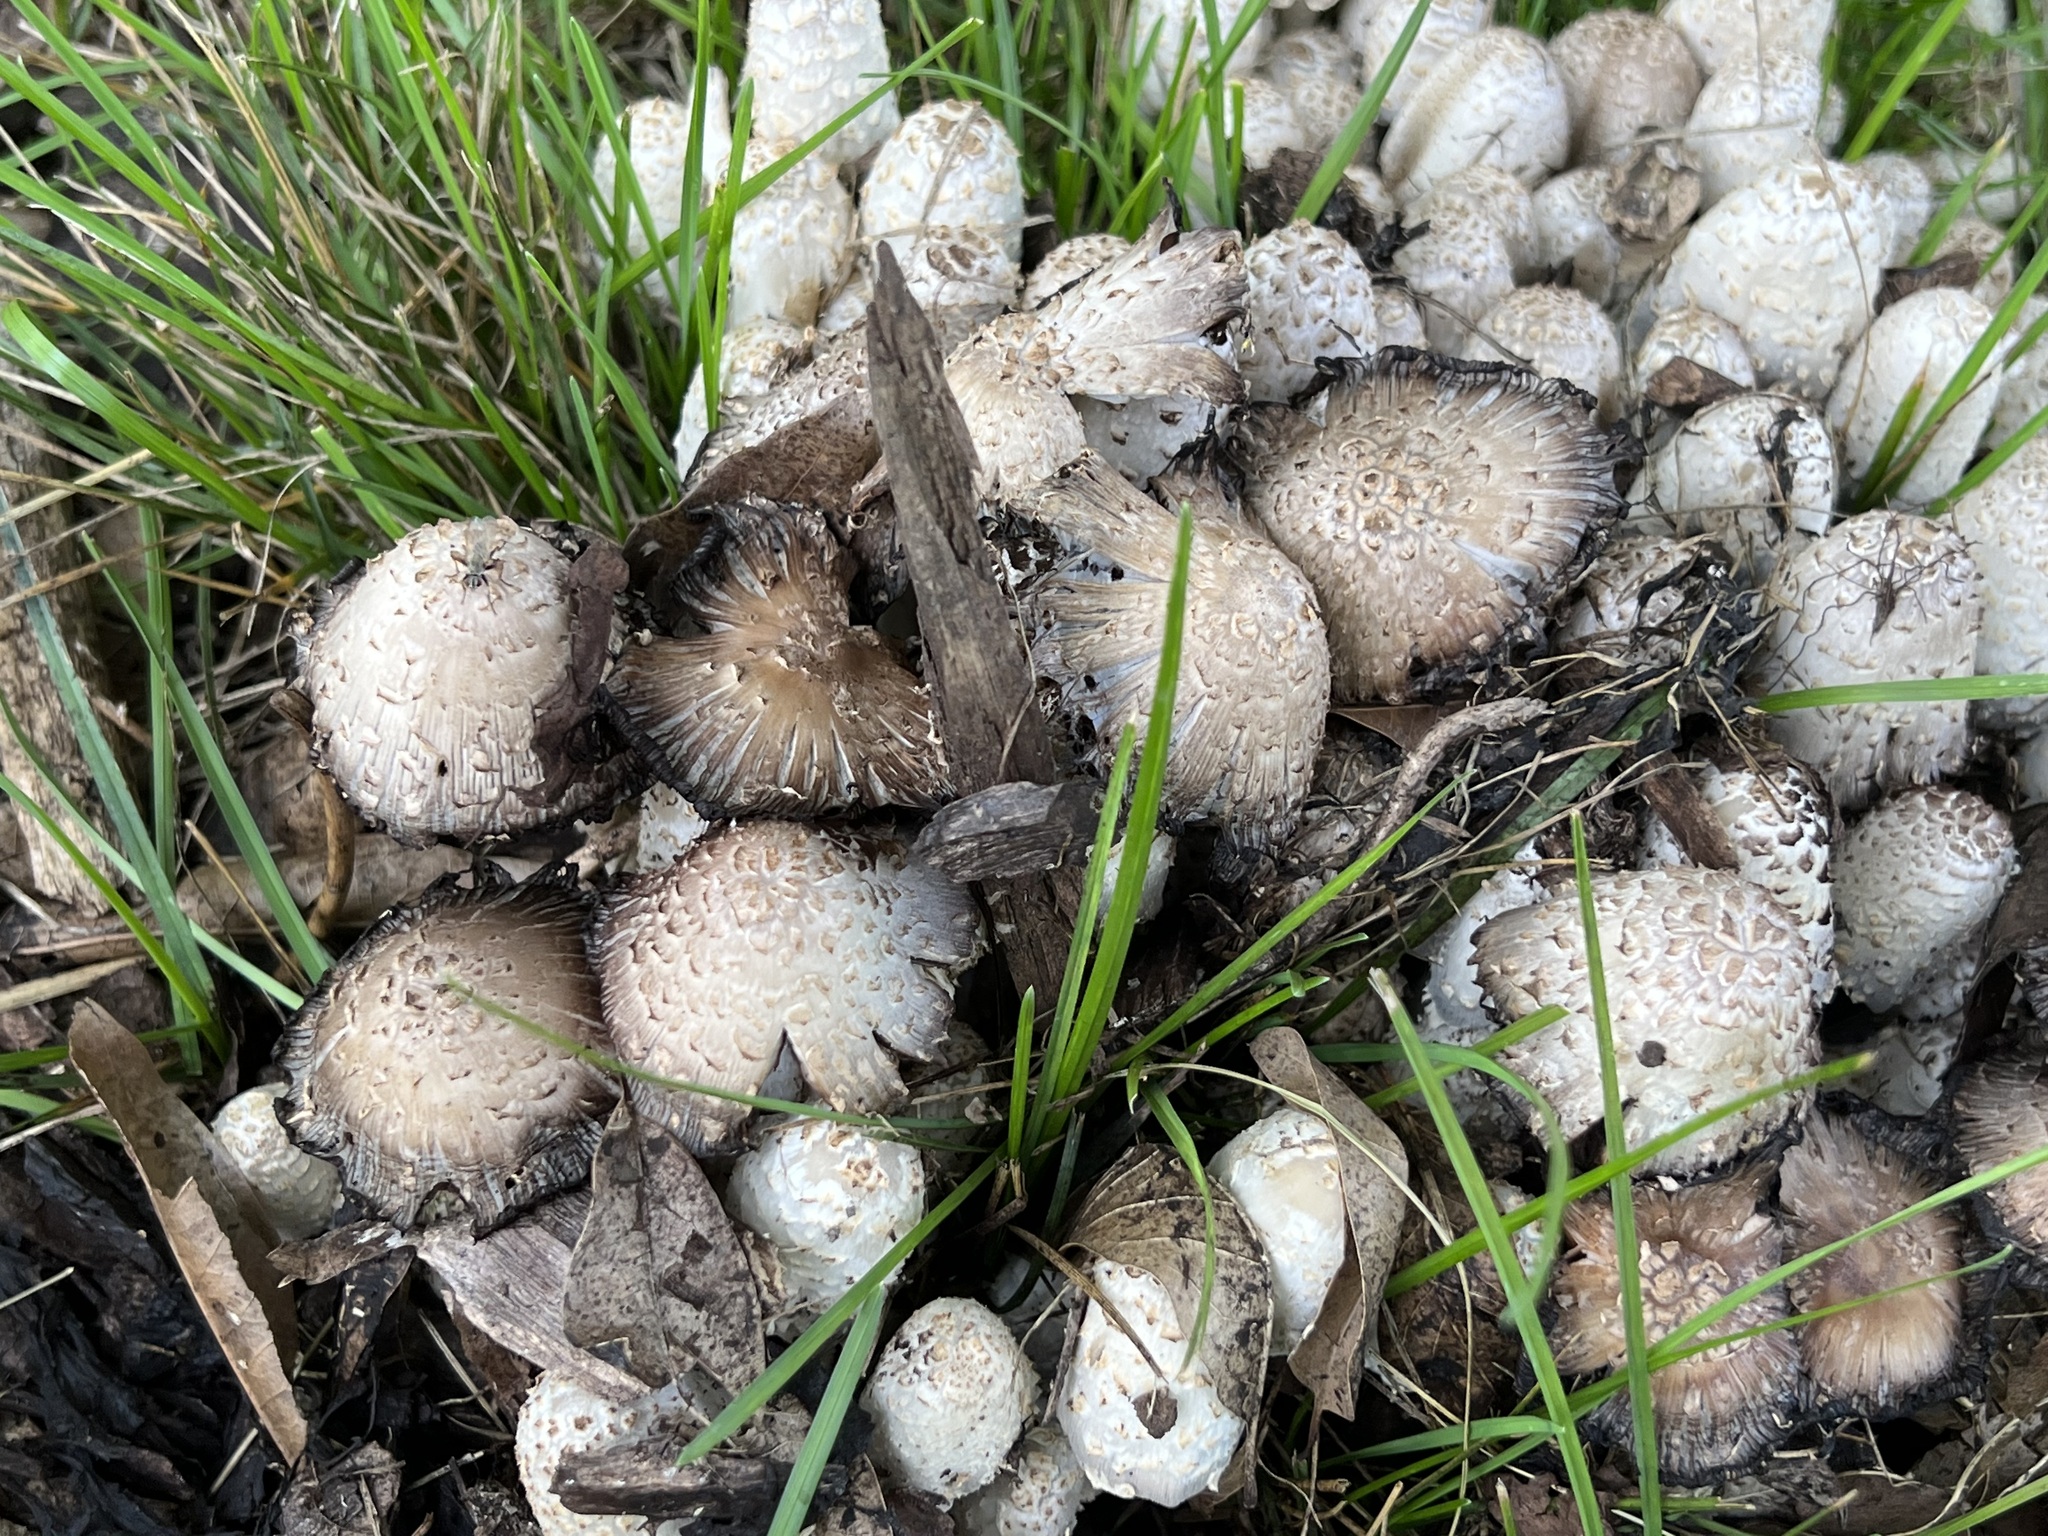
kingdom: Fungi
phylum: Basidiomycota
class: Agaricomycetes
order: Agaricales
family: Psathyrellaceae
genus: Coprinopsis
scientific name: Coprinopsis variegata
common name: Scaly ink cap
